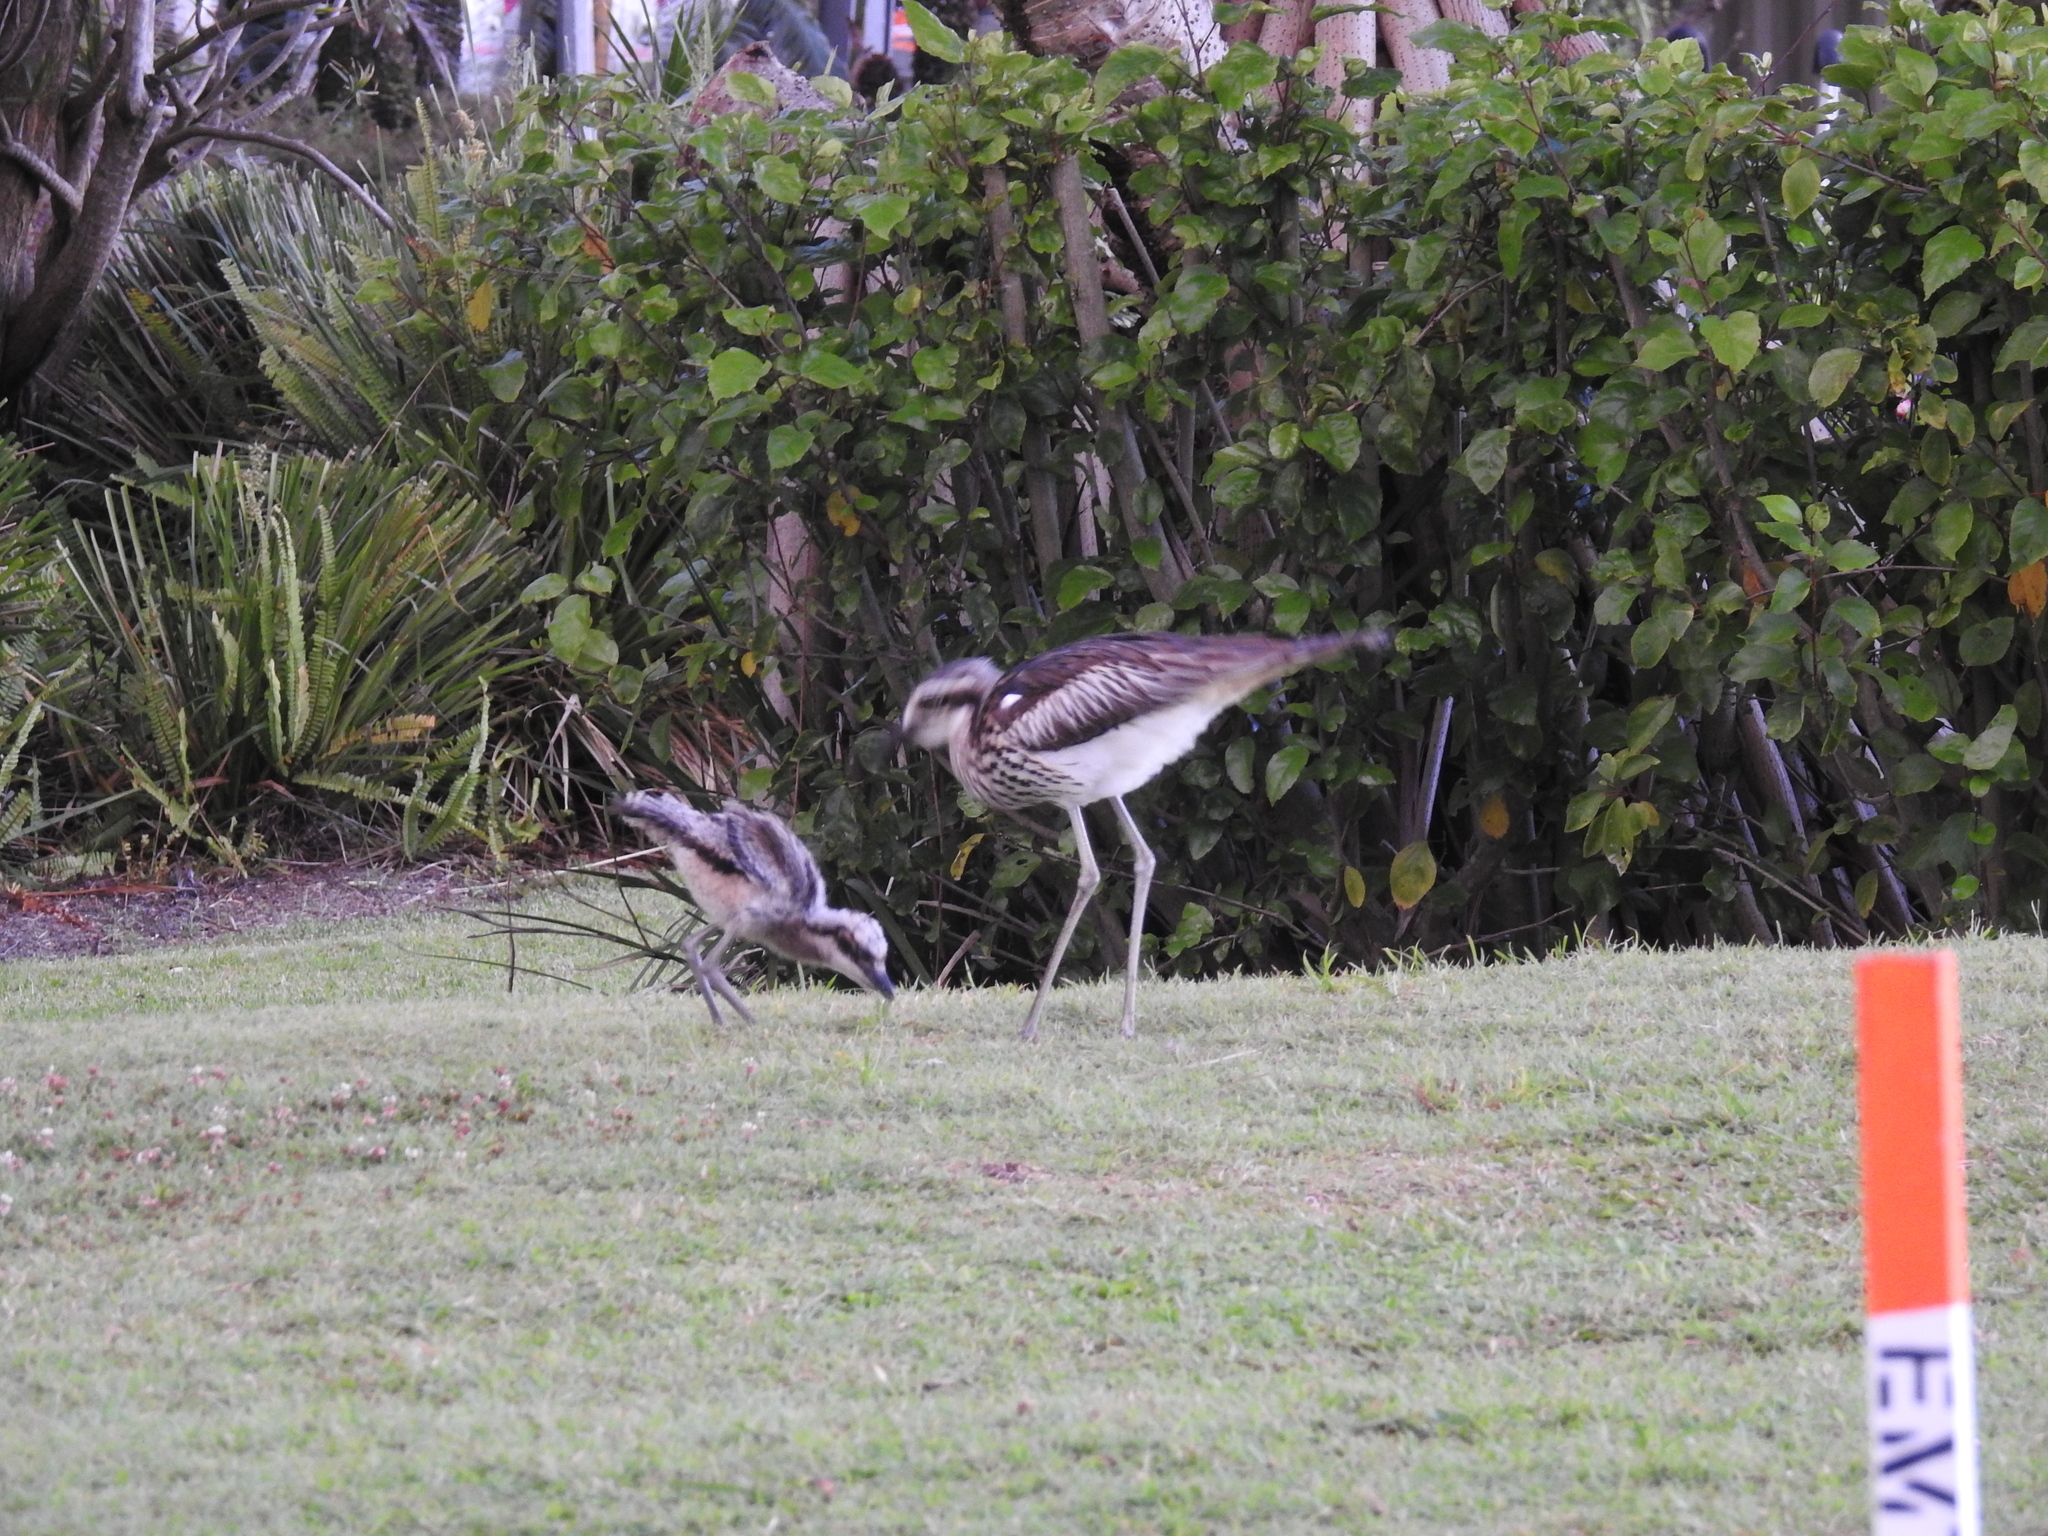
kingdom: Animalia
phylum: Chordata
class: Aves
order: Charadriiformes
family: Burhinidae
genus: Burhinus
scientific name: Burhinus grallarius
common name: Bush stone-curlew
